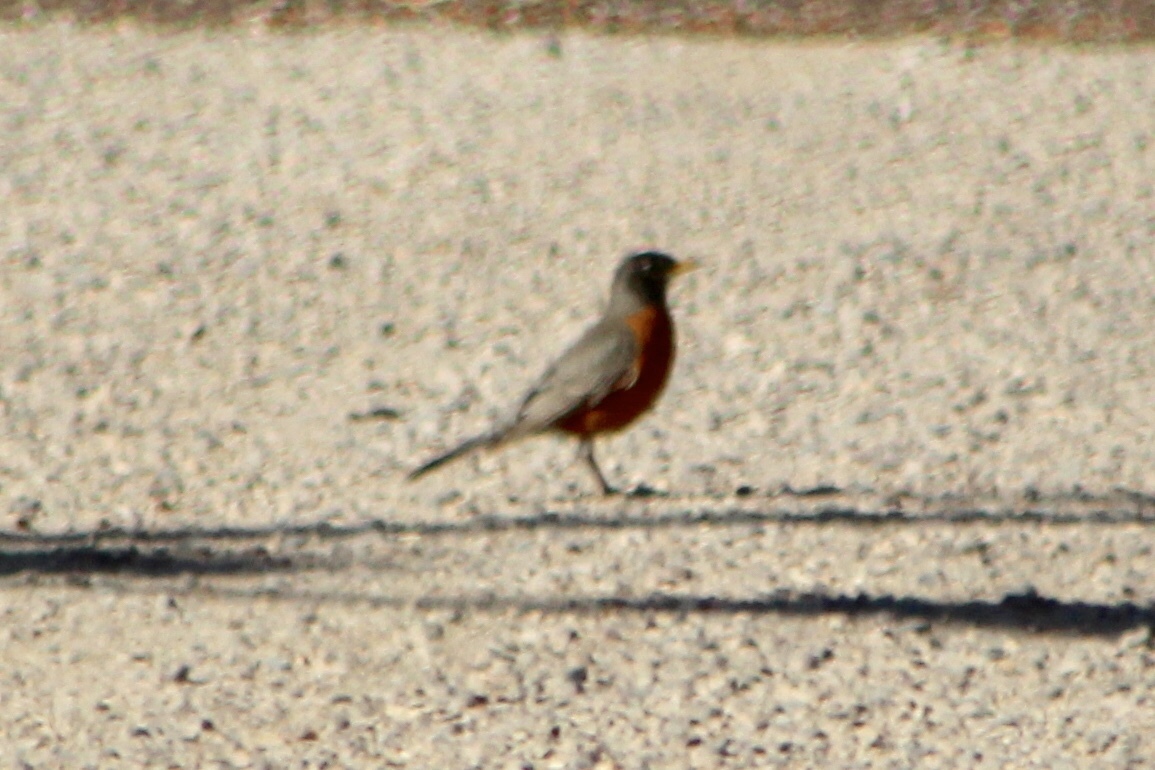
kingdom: Animalia
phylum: Chordata
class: Aves
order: Passeriformes
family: Turdidae
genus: Turdus
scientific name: Turdus migratorius
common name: American robin
